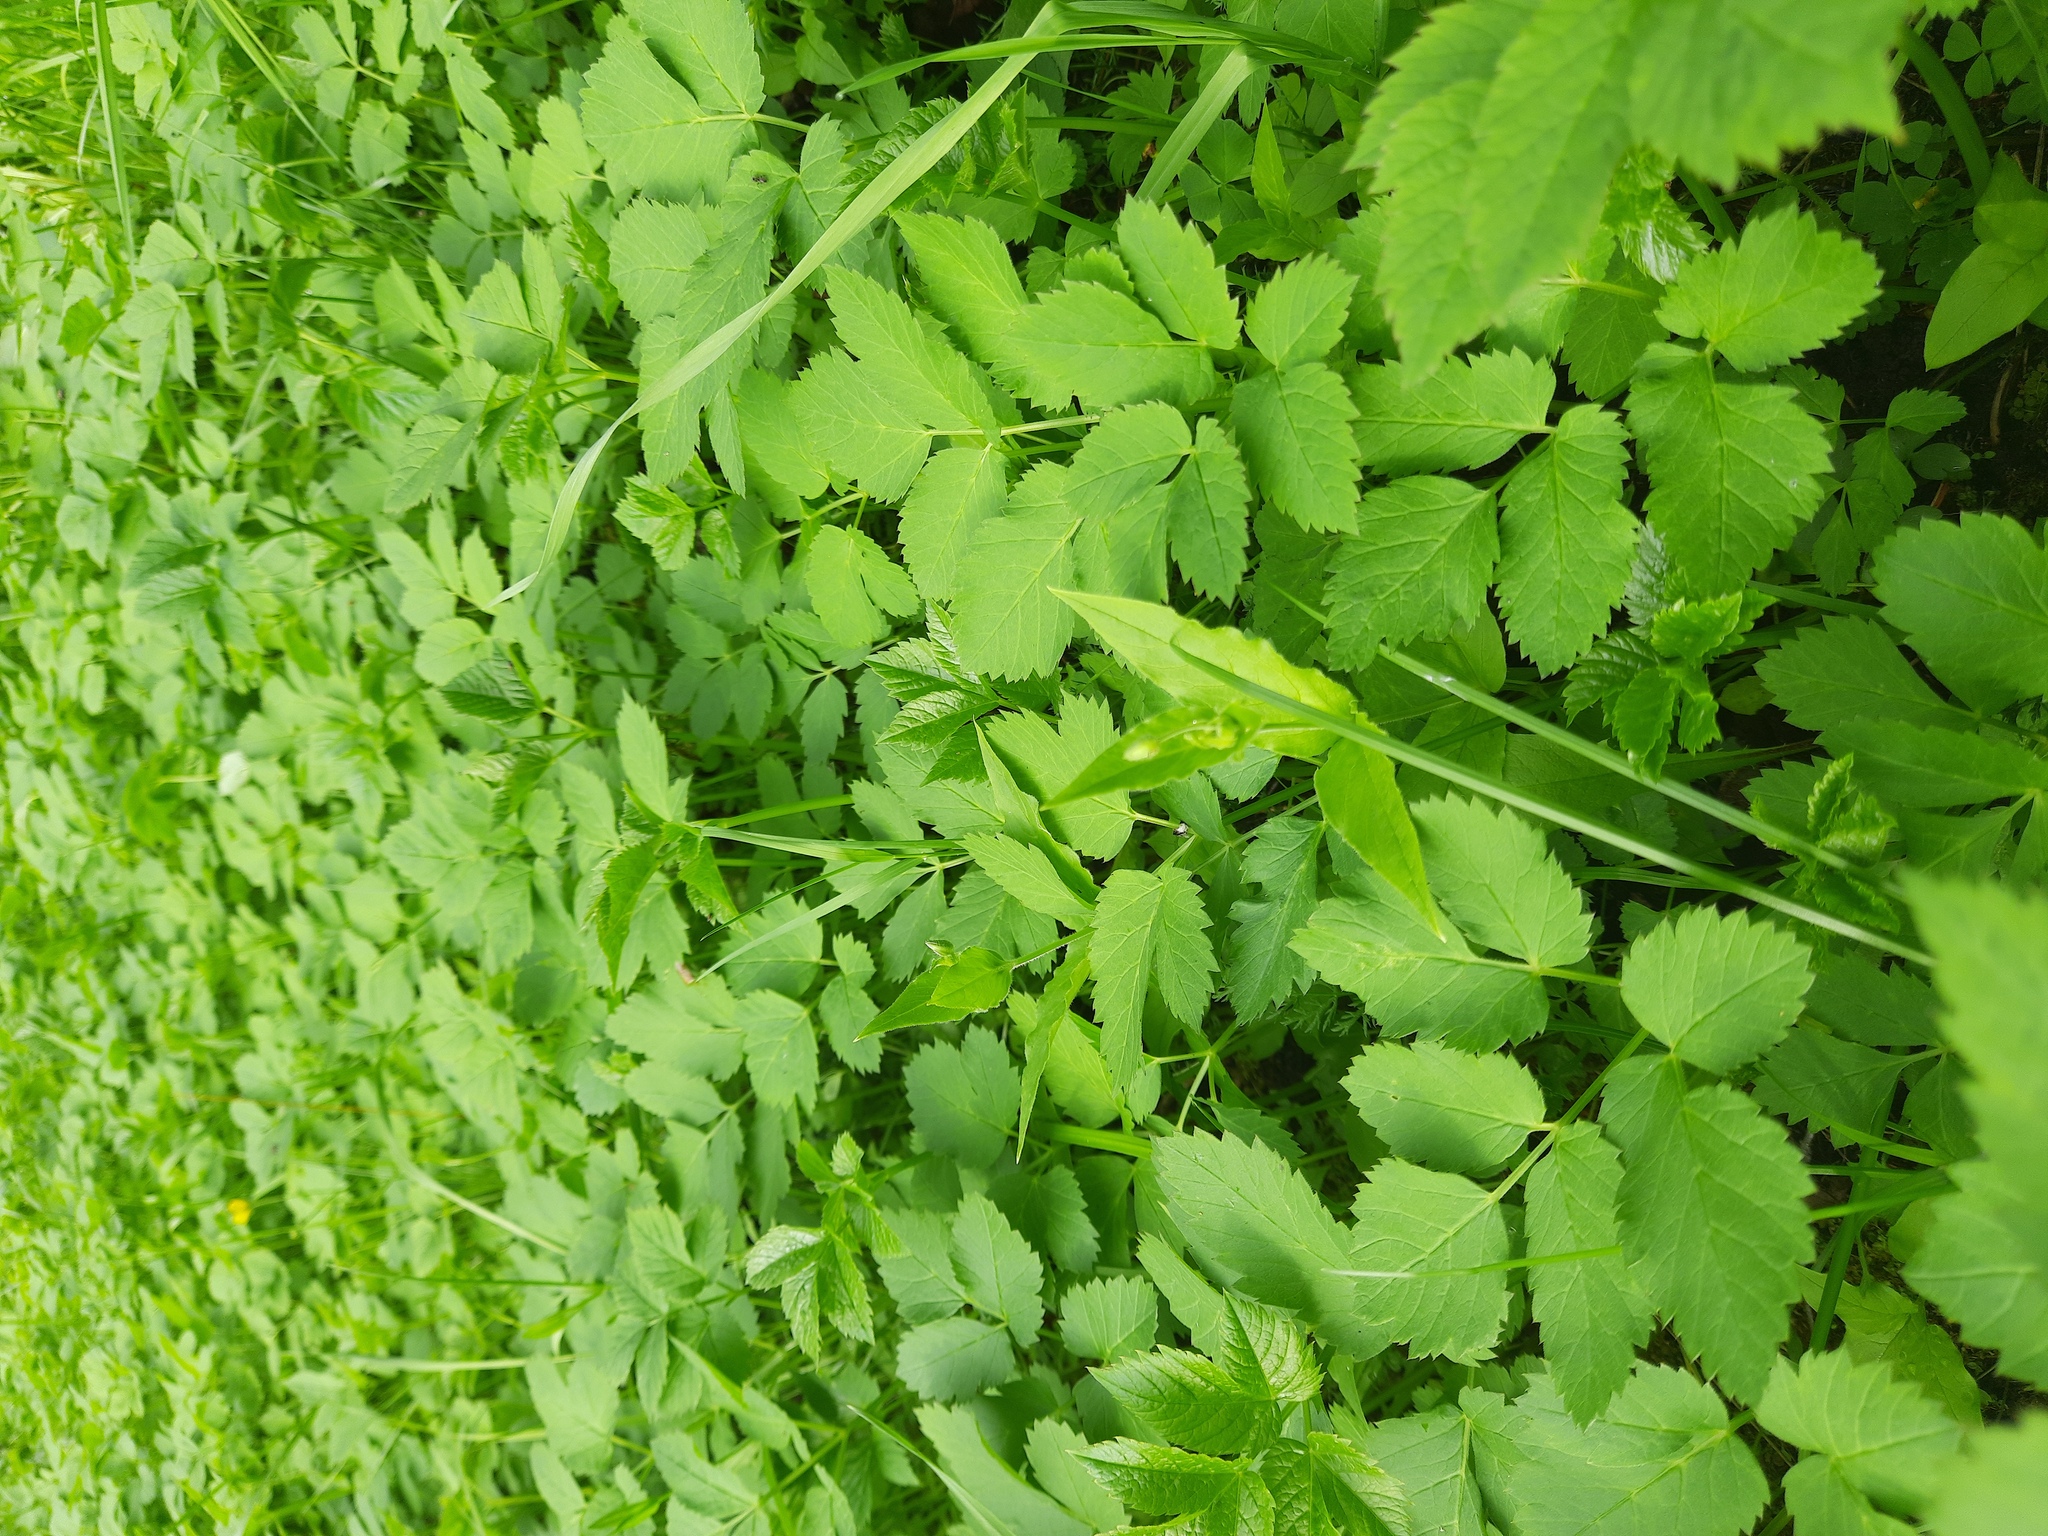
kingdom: Plantae
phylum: Tracheophyta
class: Magnoliopsida
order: Apiales
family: Apiaceae
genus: Aegopodium
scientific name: Aegopodium podagraria
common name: Ground-elder
